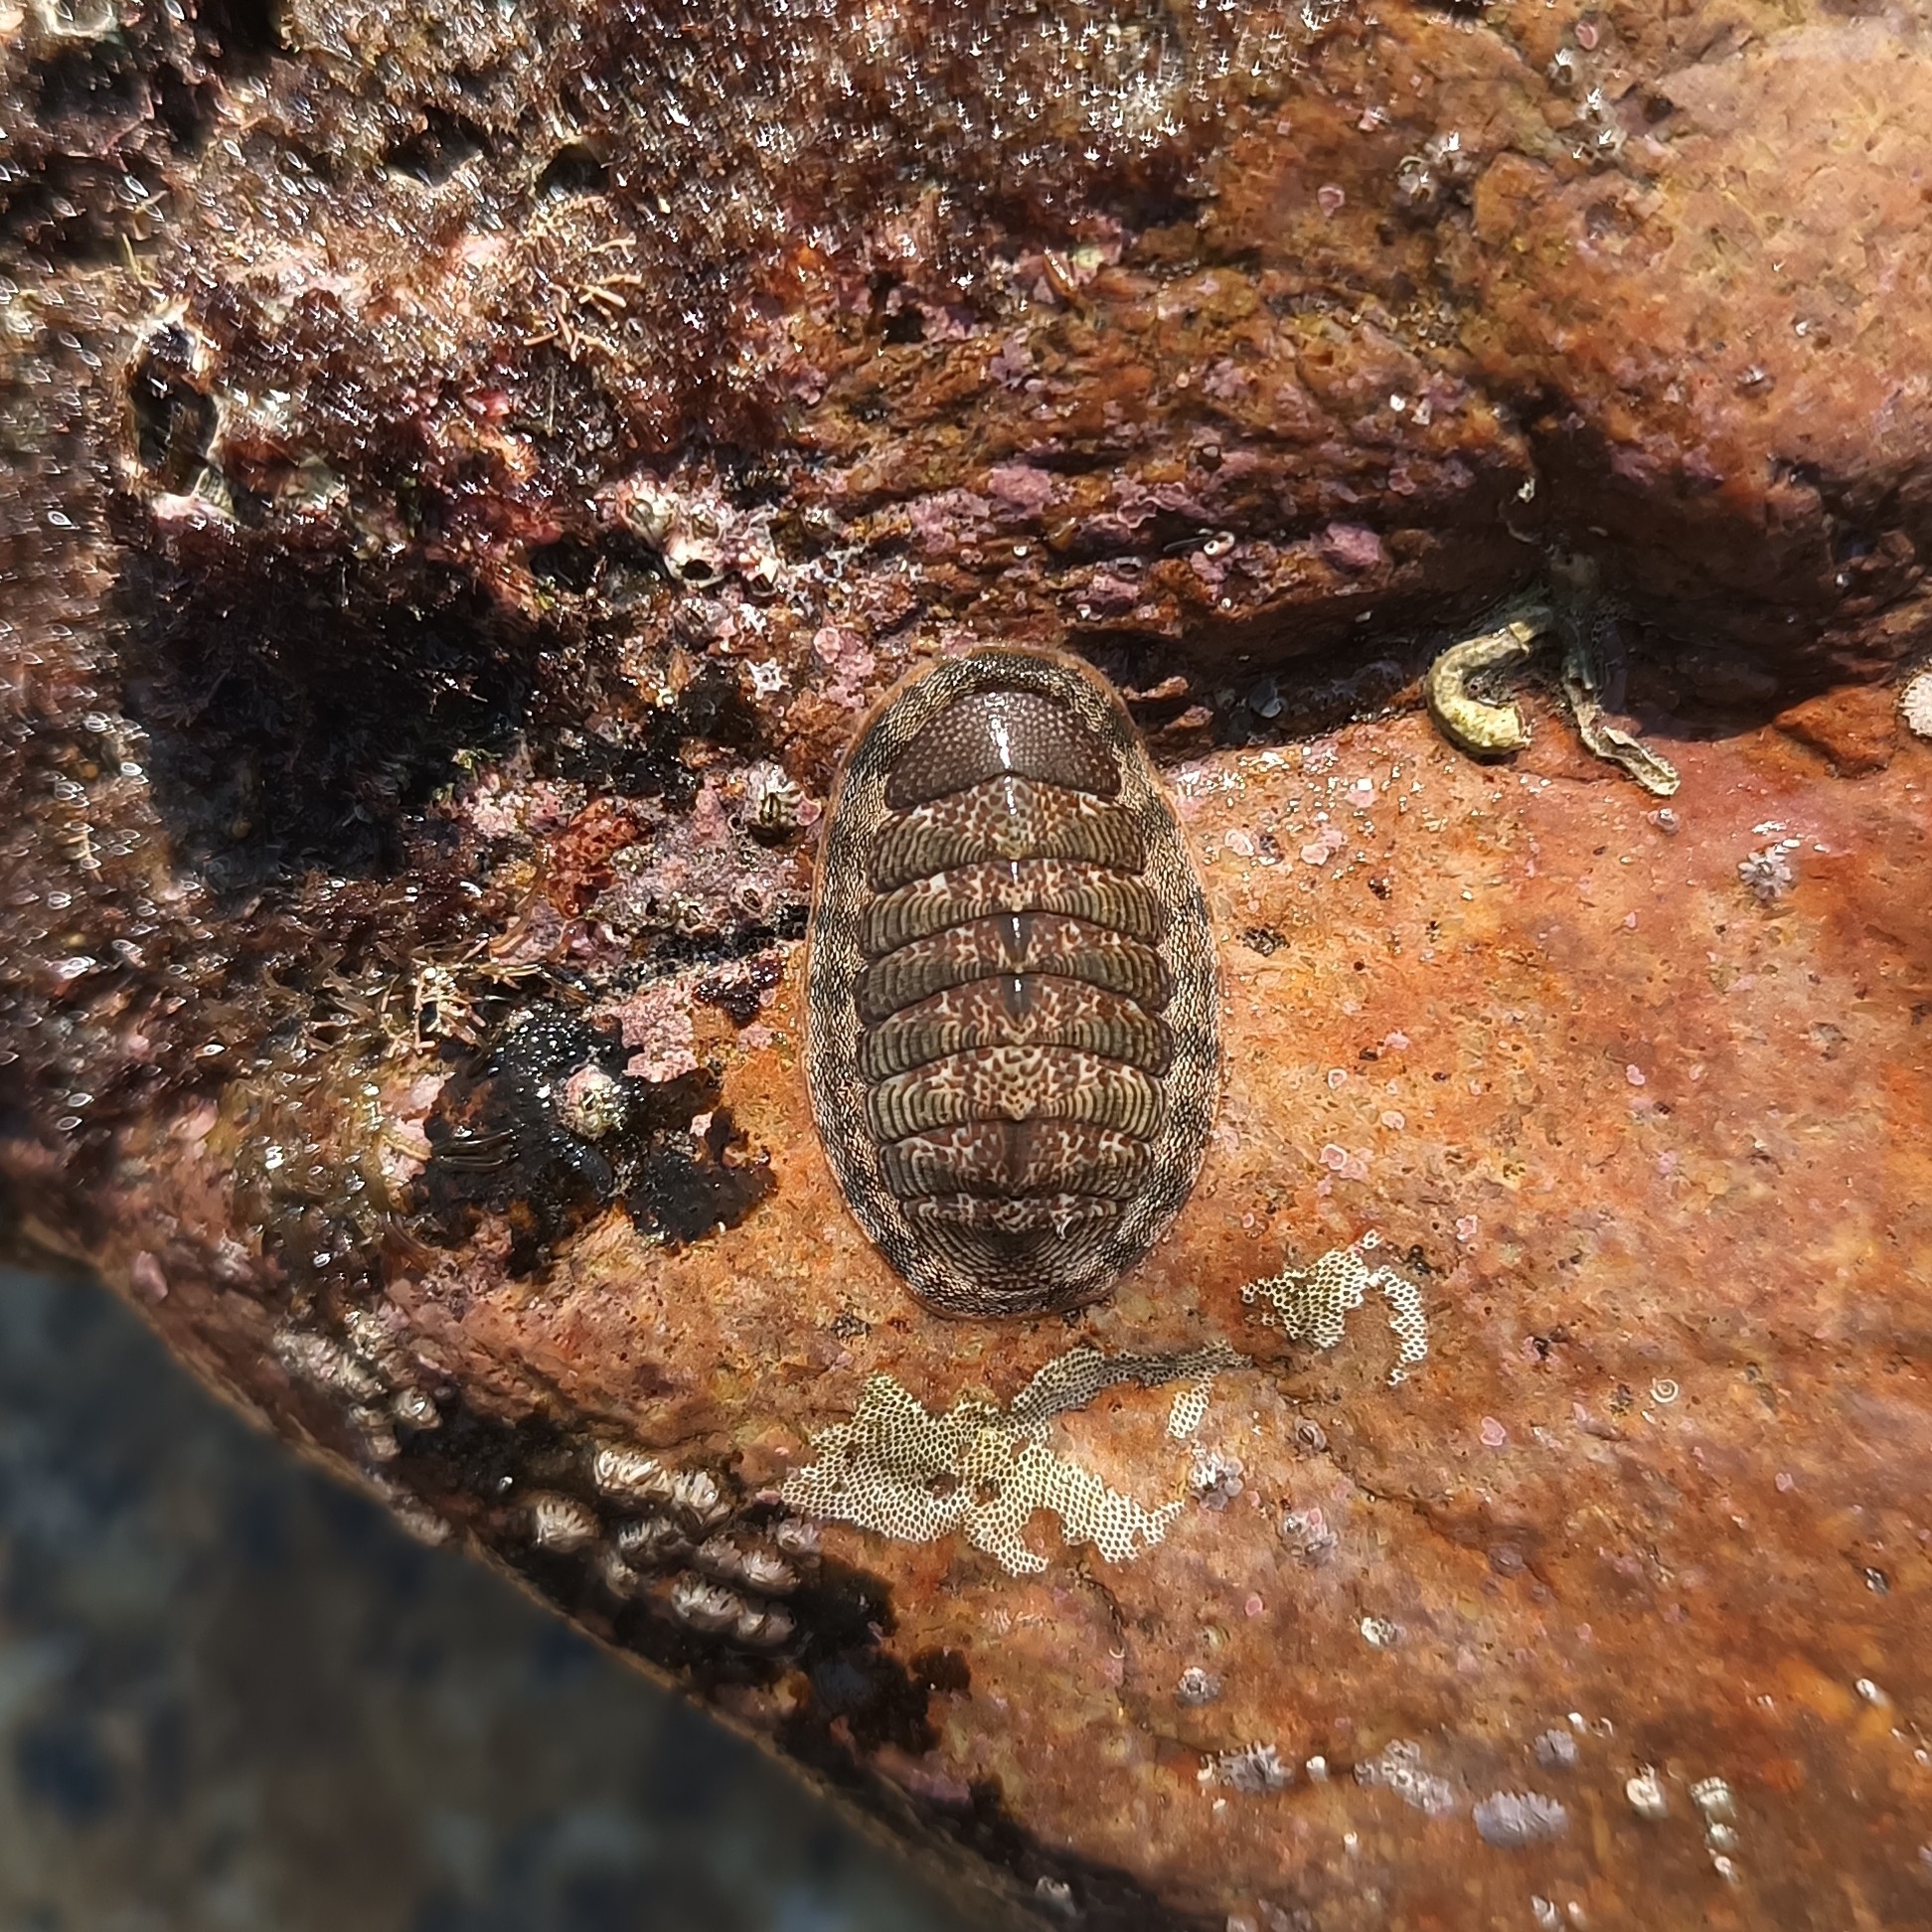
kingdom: Animalia
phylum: Mollusca
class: Polyplacophora
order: Chitonida
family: Ischnochitonidae
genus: Ischnochiton
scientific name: Ischnochiton muscarius
